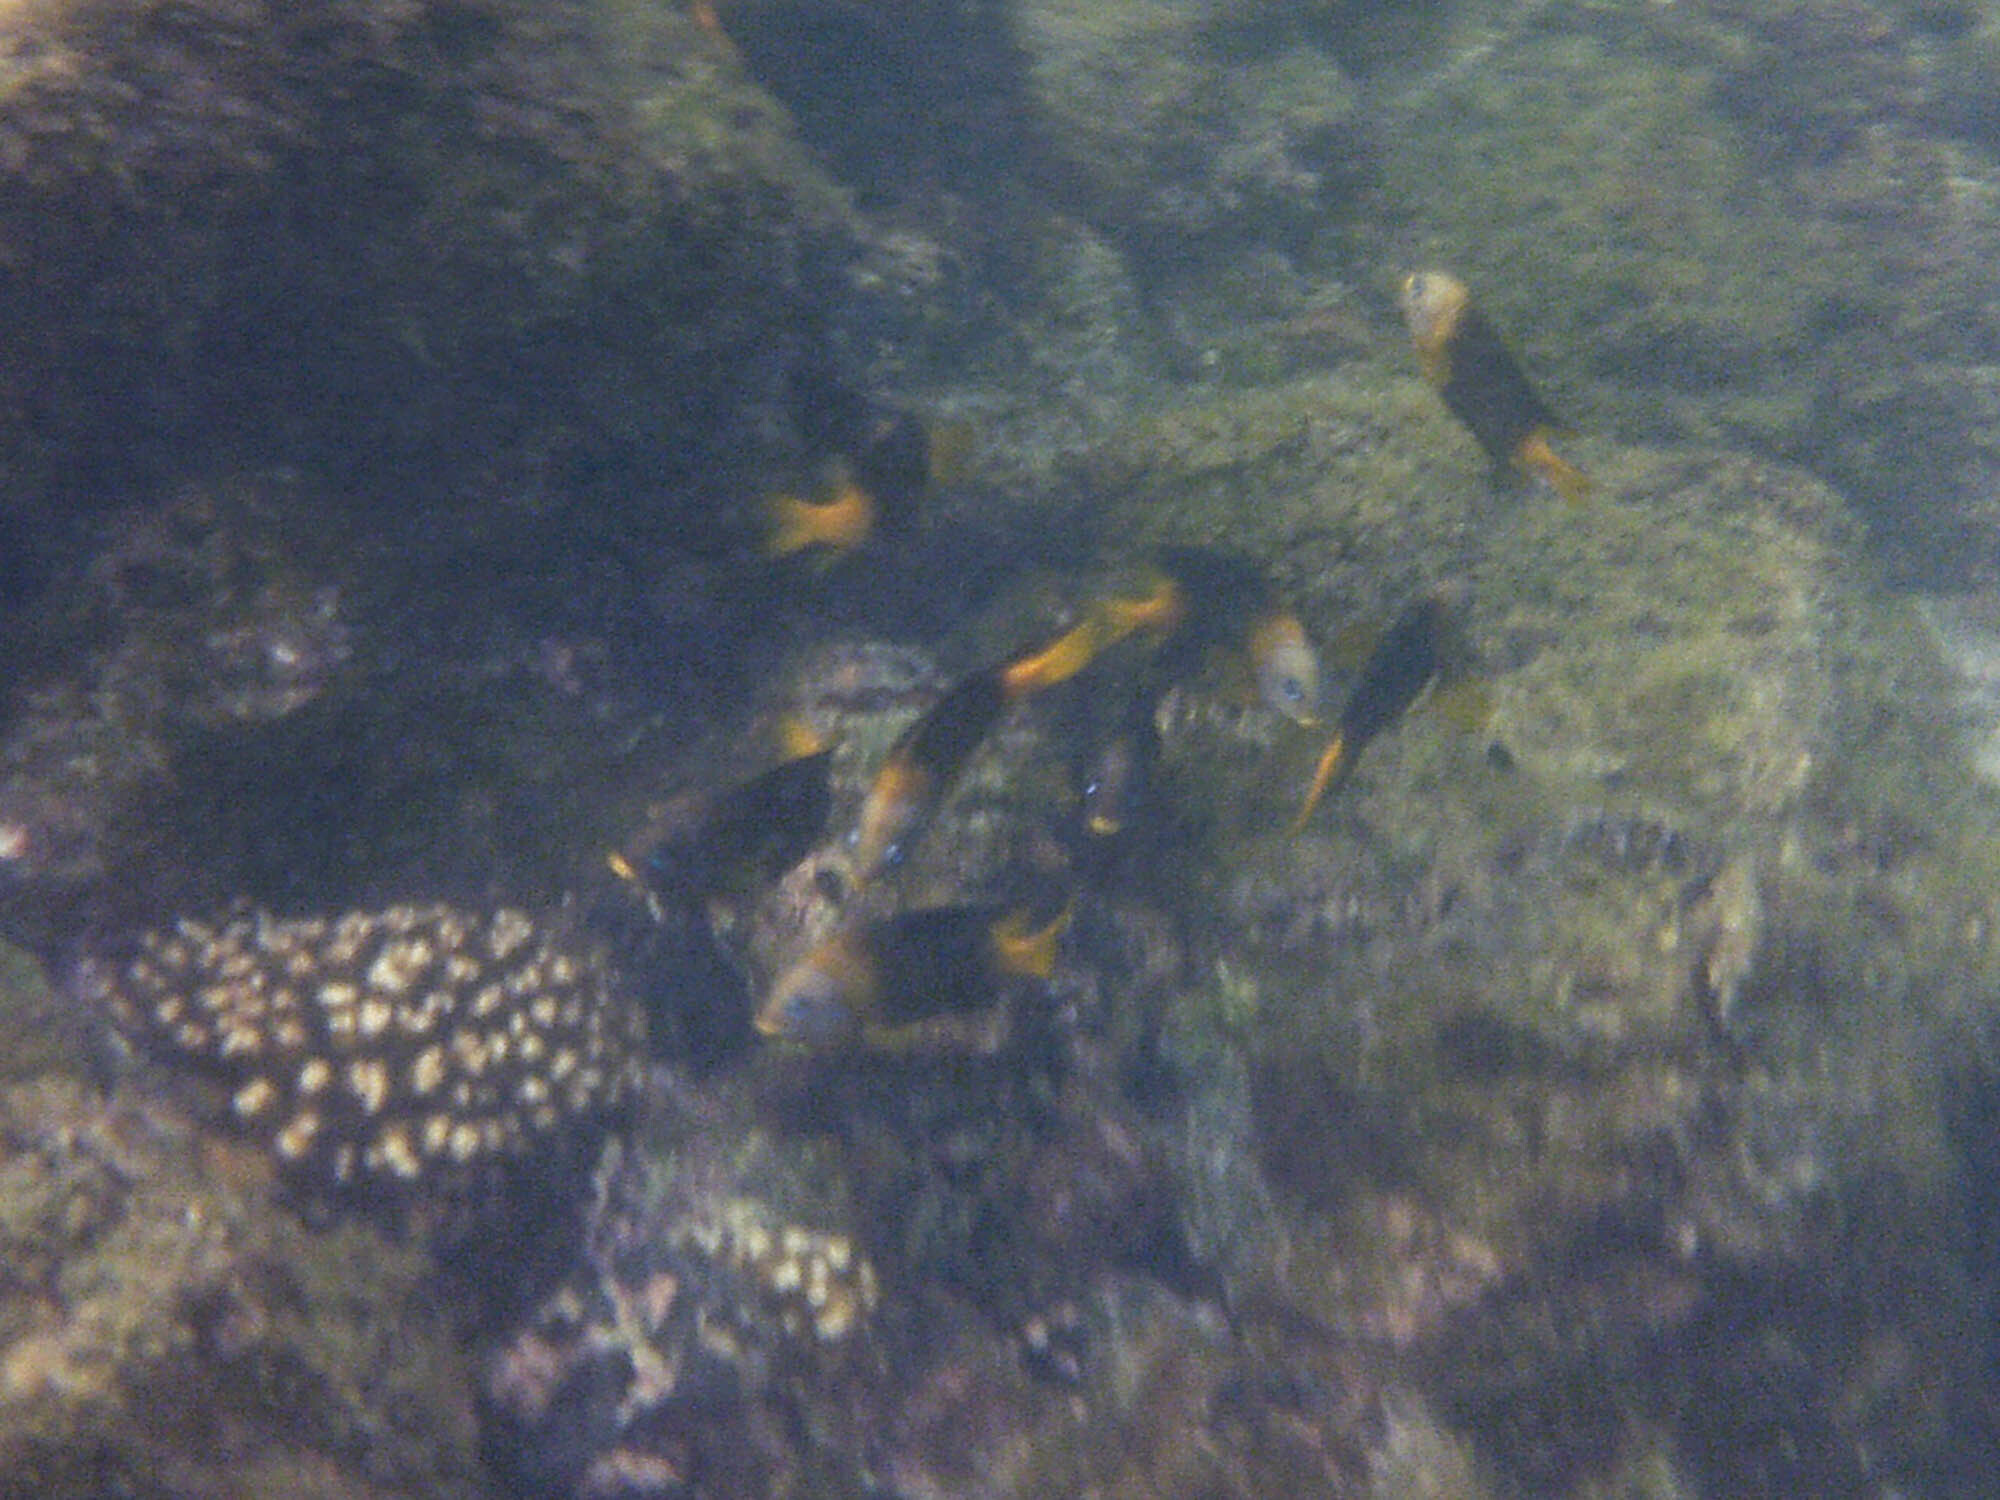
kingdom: Animalia
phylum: Chordata
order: Perciformes
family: Pomacentridae
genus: Stegastes
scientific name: Stegastes arcifrons
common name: Galapagos gregory
